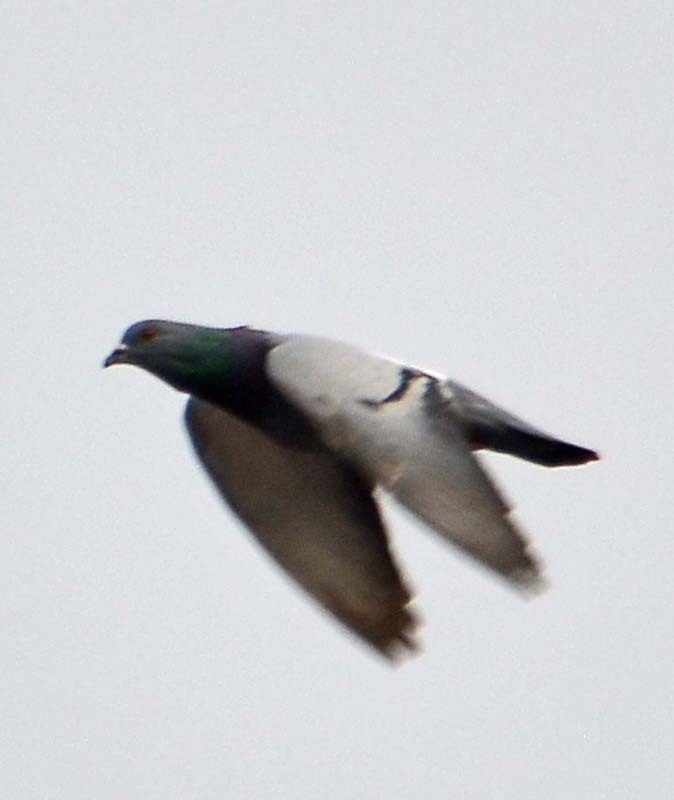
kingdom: Animalia
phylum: Chordata
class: Aves
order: Columbiformes
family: Columbidae
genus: Columba
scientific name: Columba livia
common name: Rock pigeon
